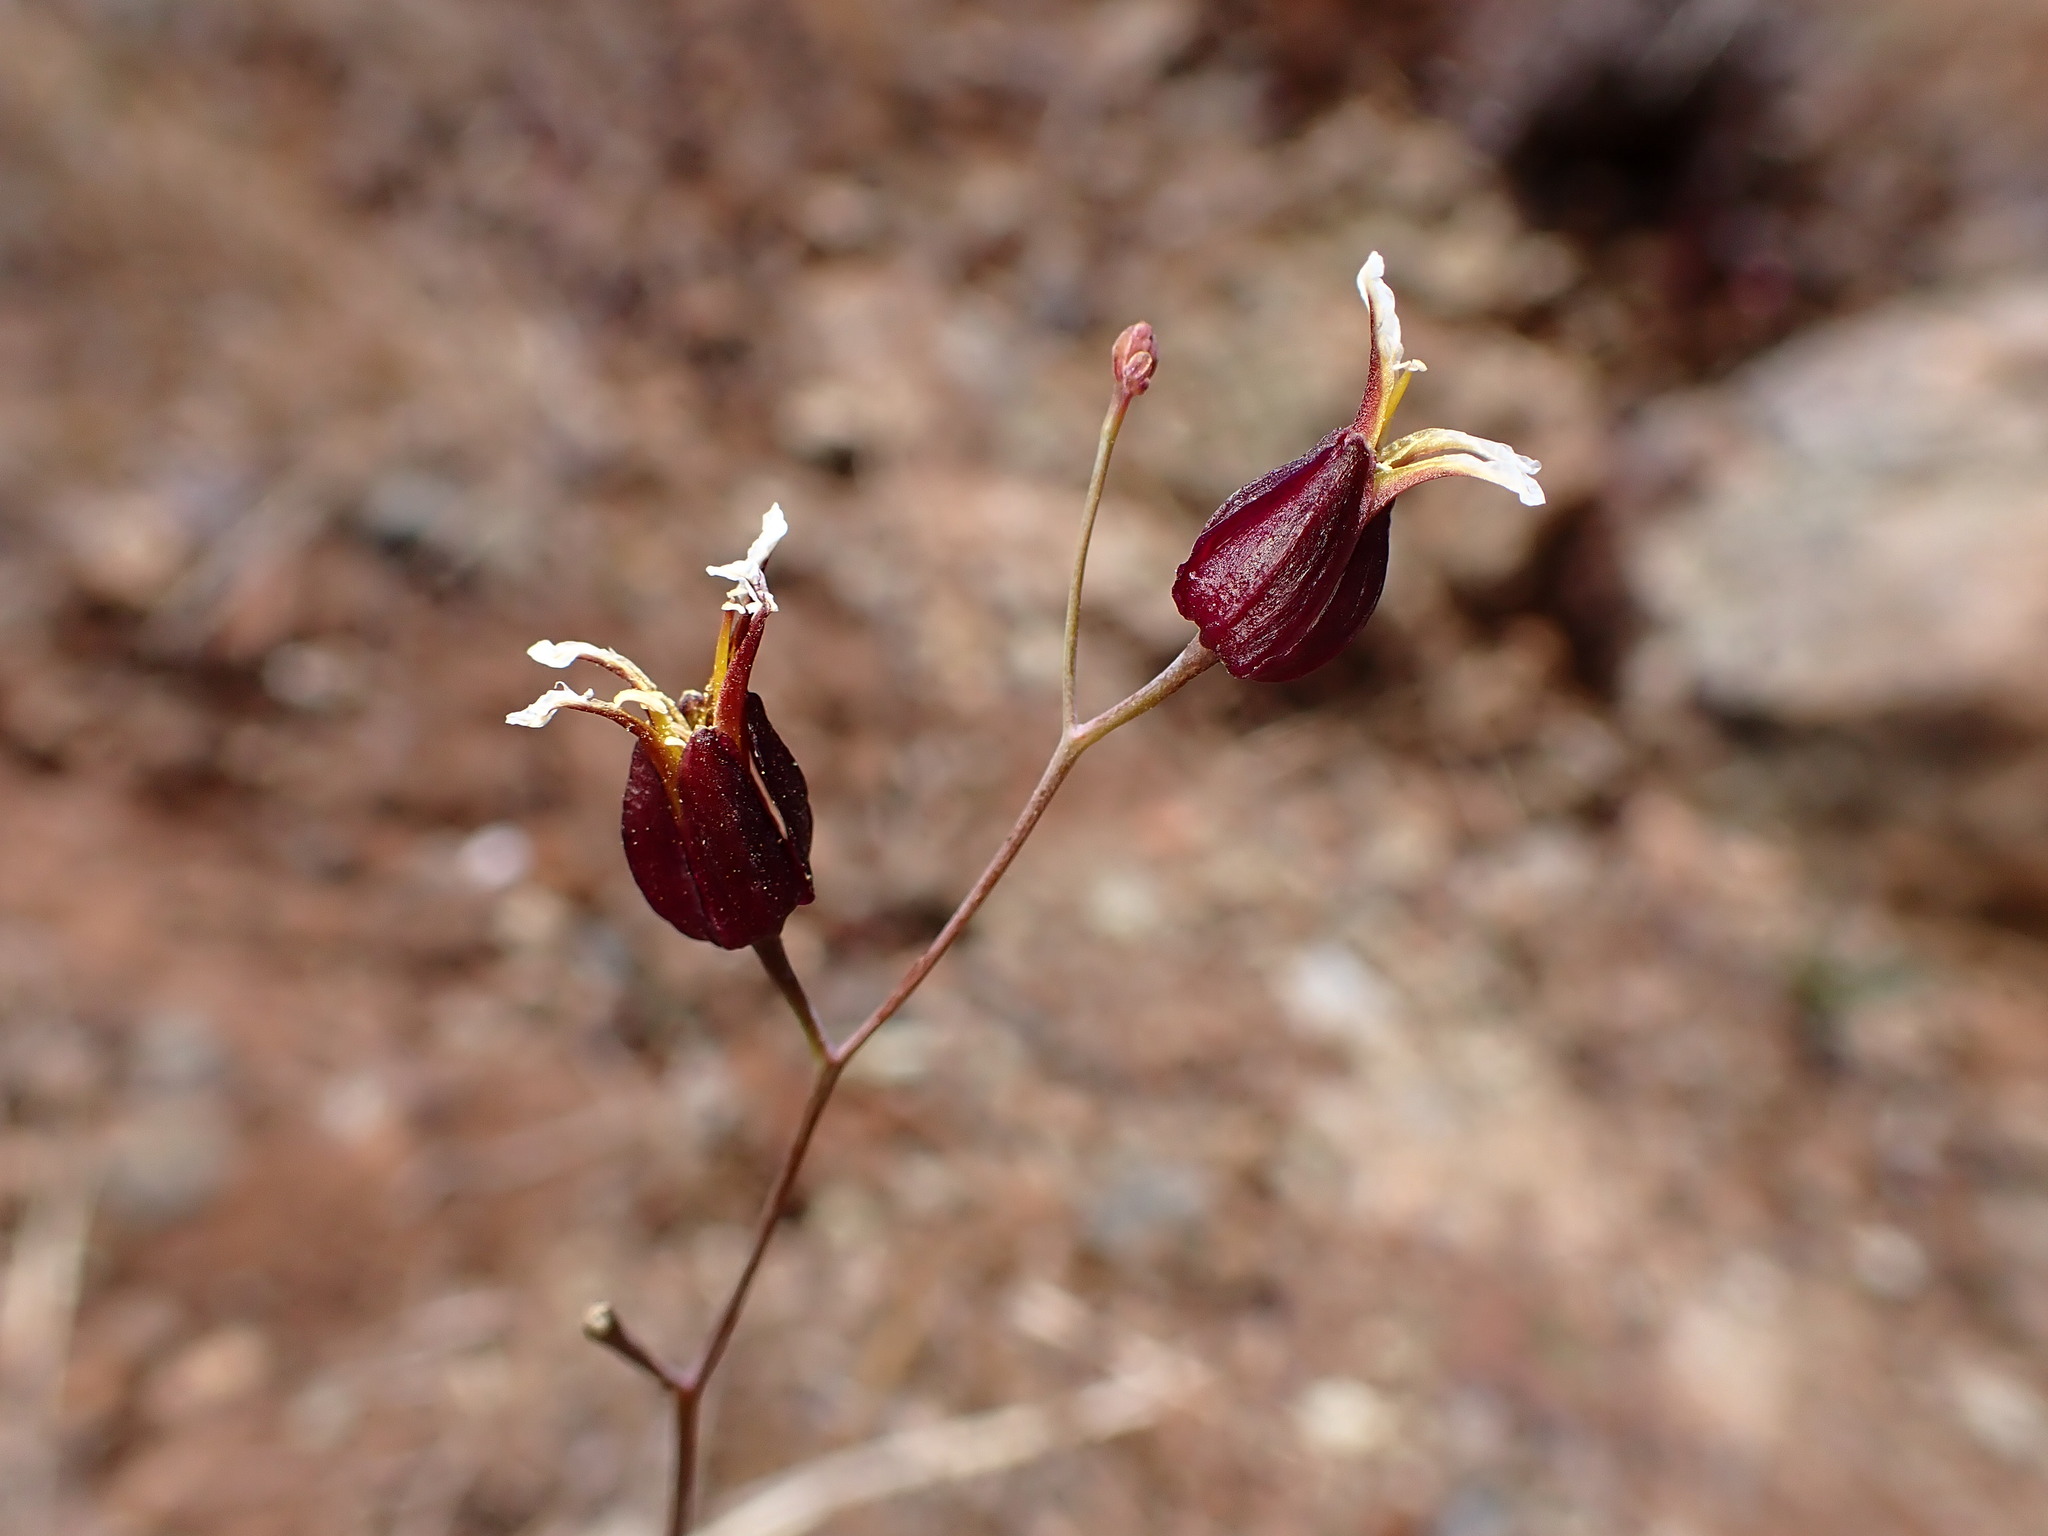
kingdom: Plantae
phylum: Tracheophyta
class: Magnoliopsida
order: Brassicales
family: Brassicaceae
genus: Streptanthus
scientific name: Streptanthus glandulosus
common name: Jewel-flower
